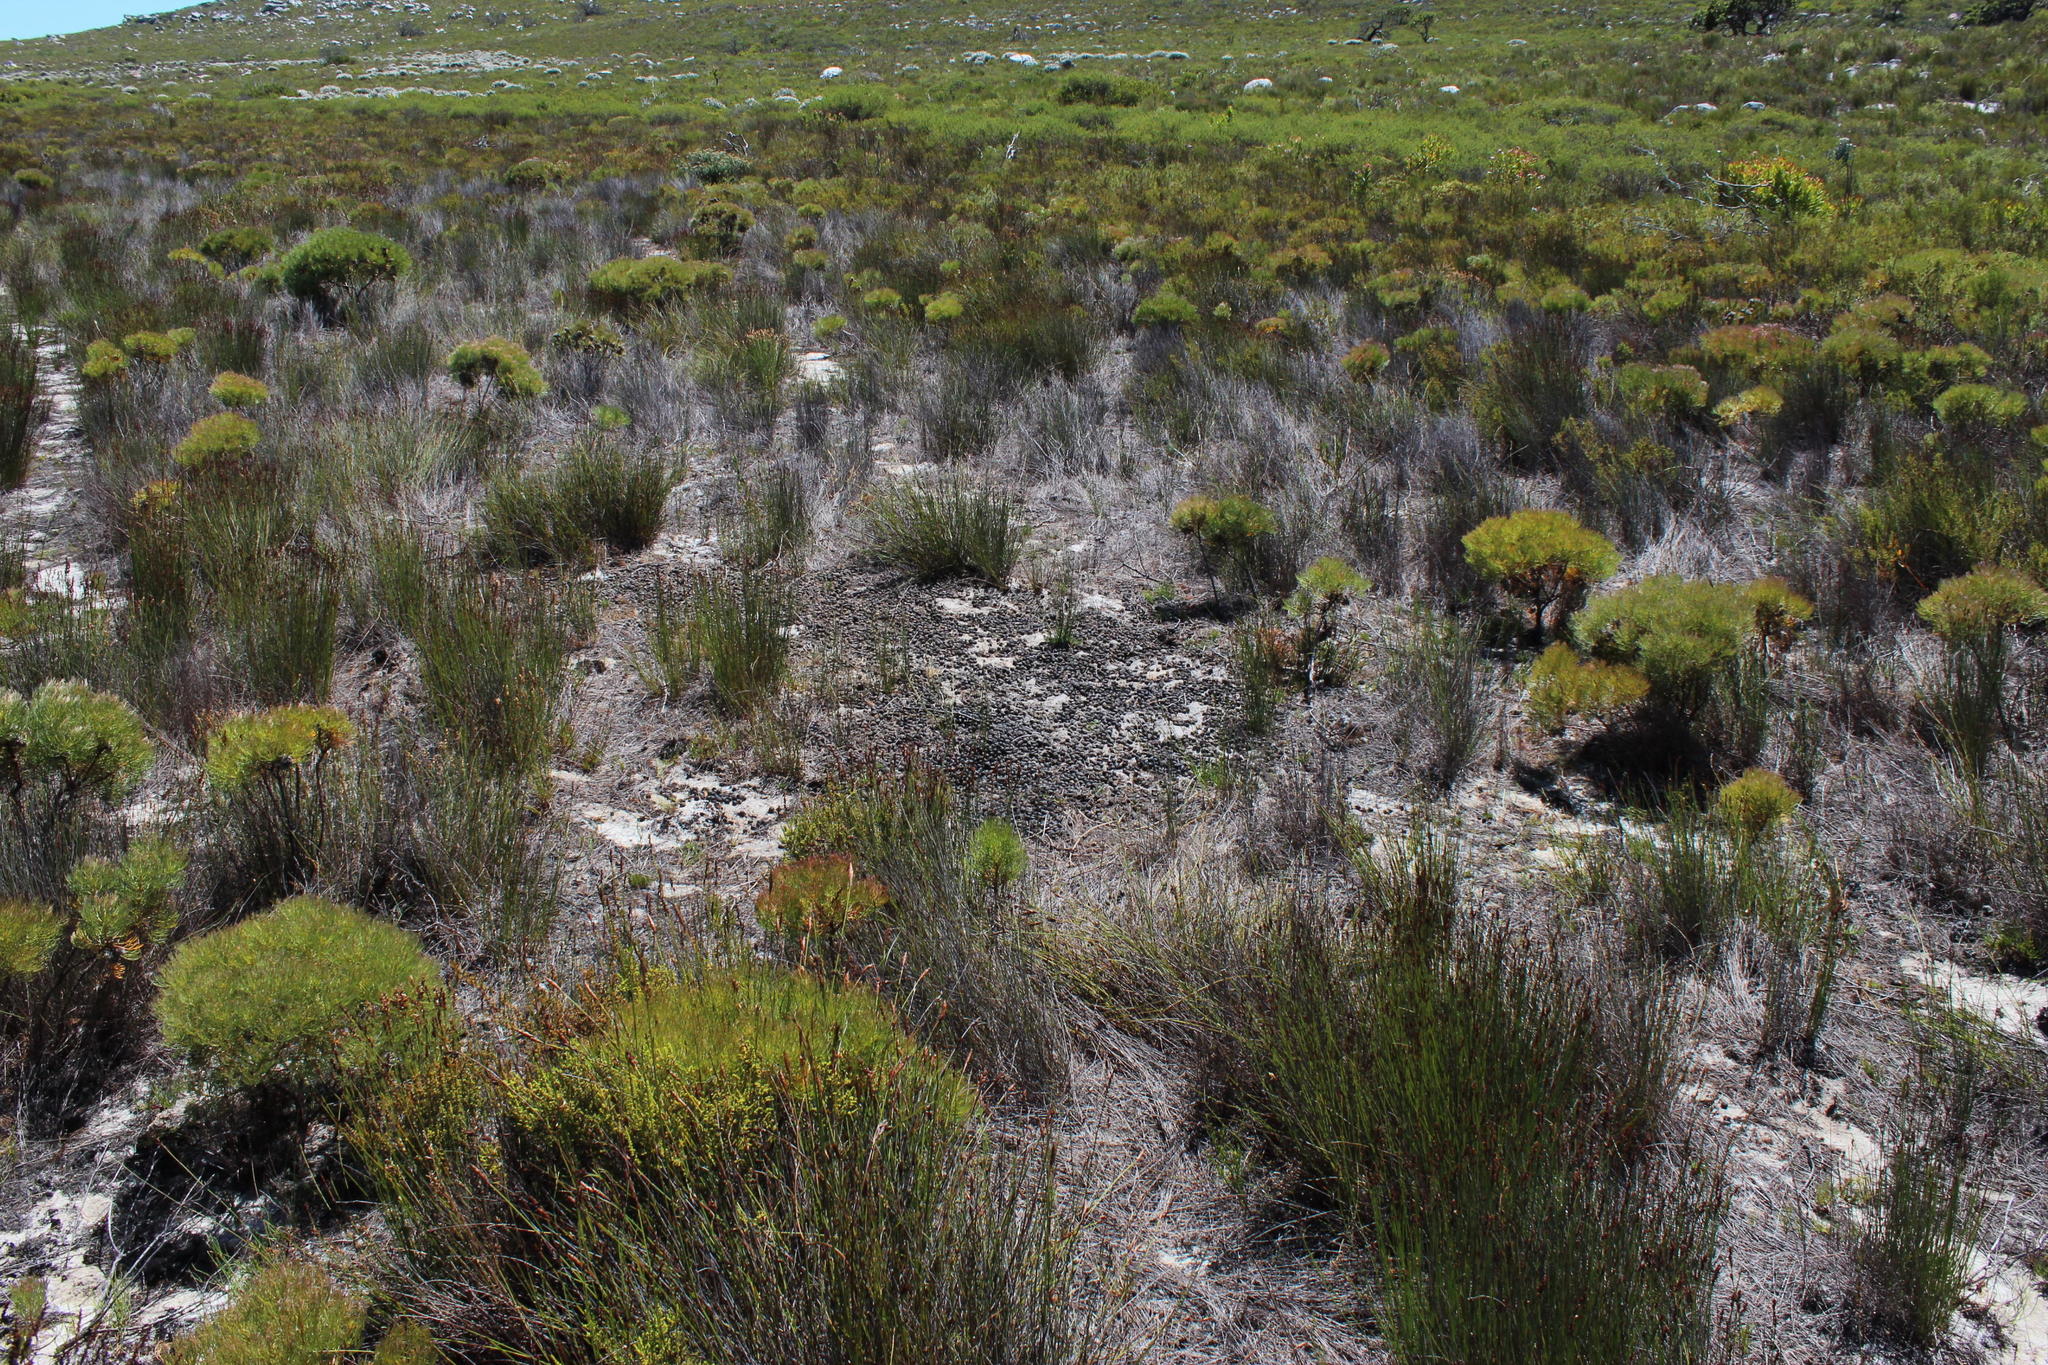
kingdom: Animalia
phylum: Chordata
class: Mammalia
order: Artiodactyla
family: Bovidae
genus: Damaliscus
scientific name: Damaliscus pygargus
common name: Bontebok
